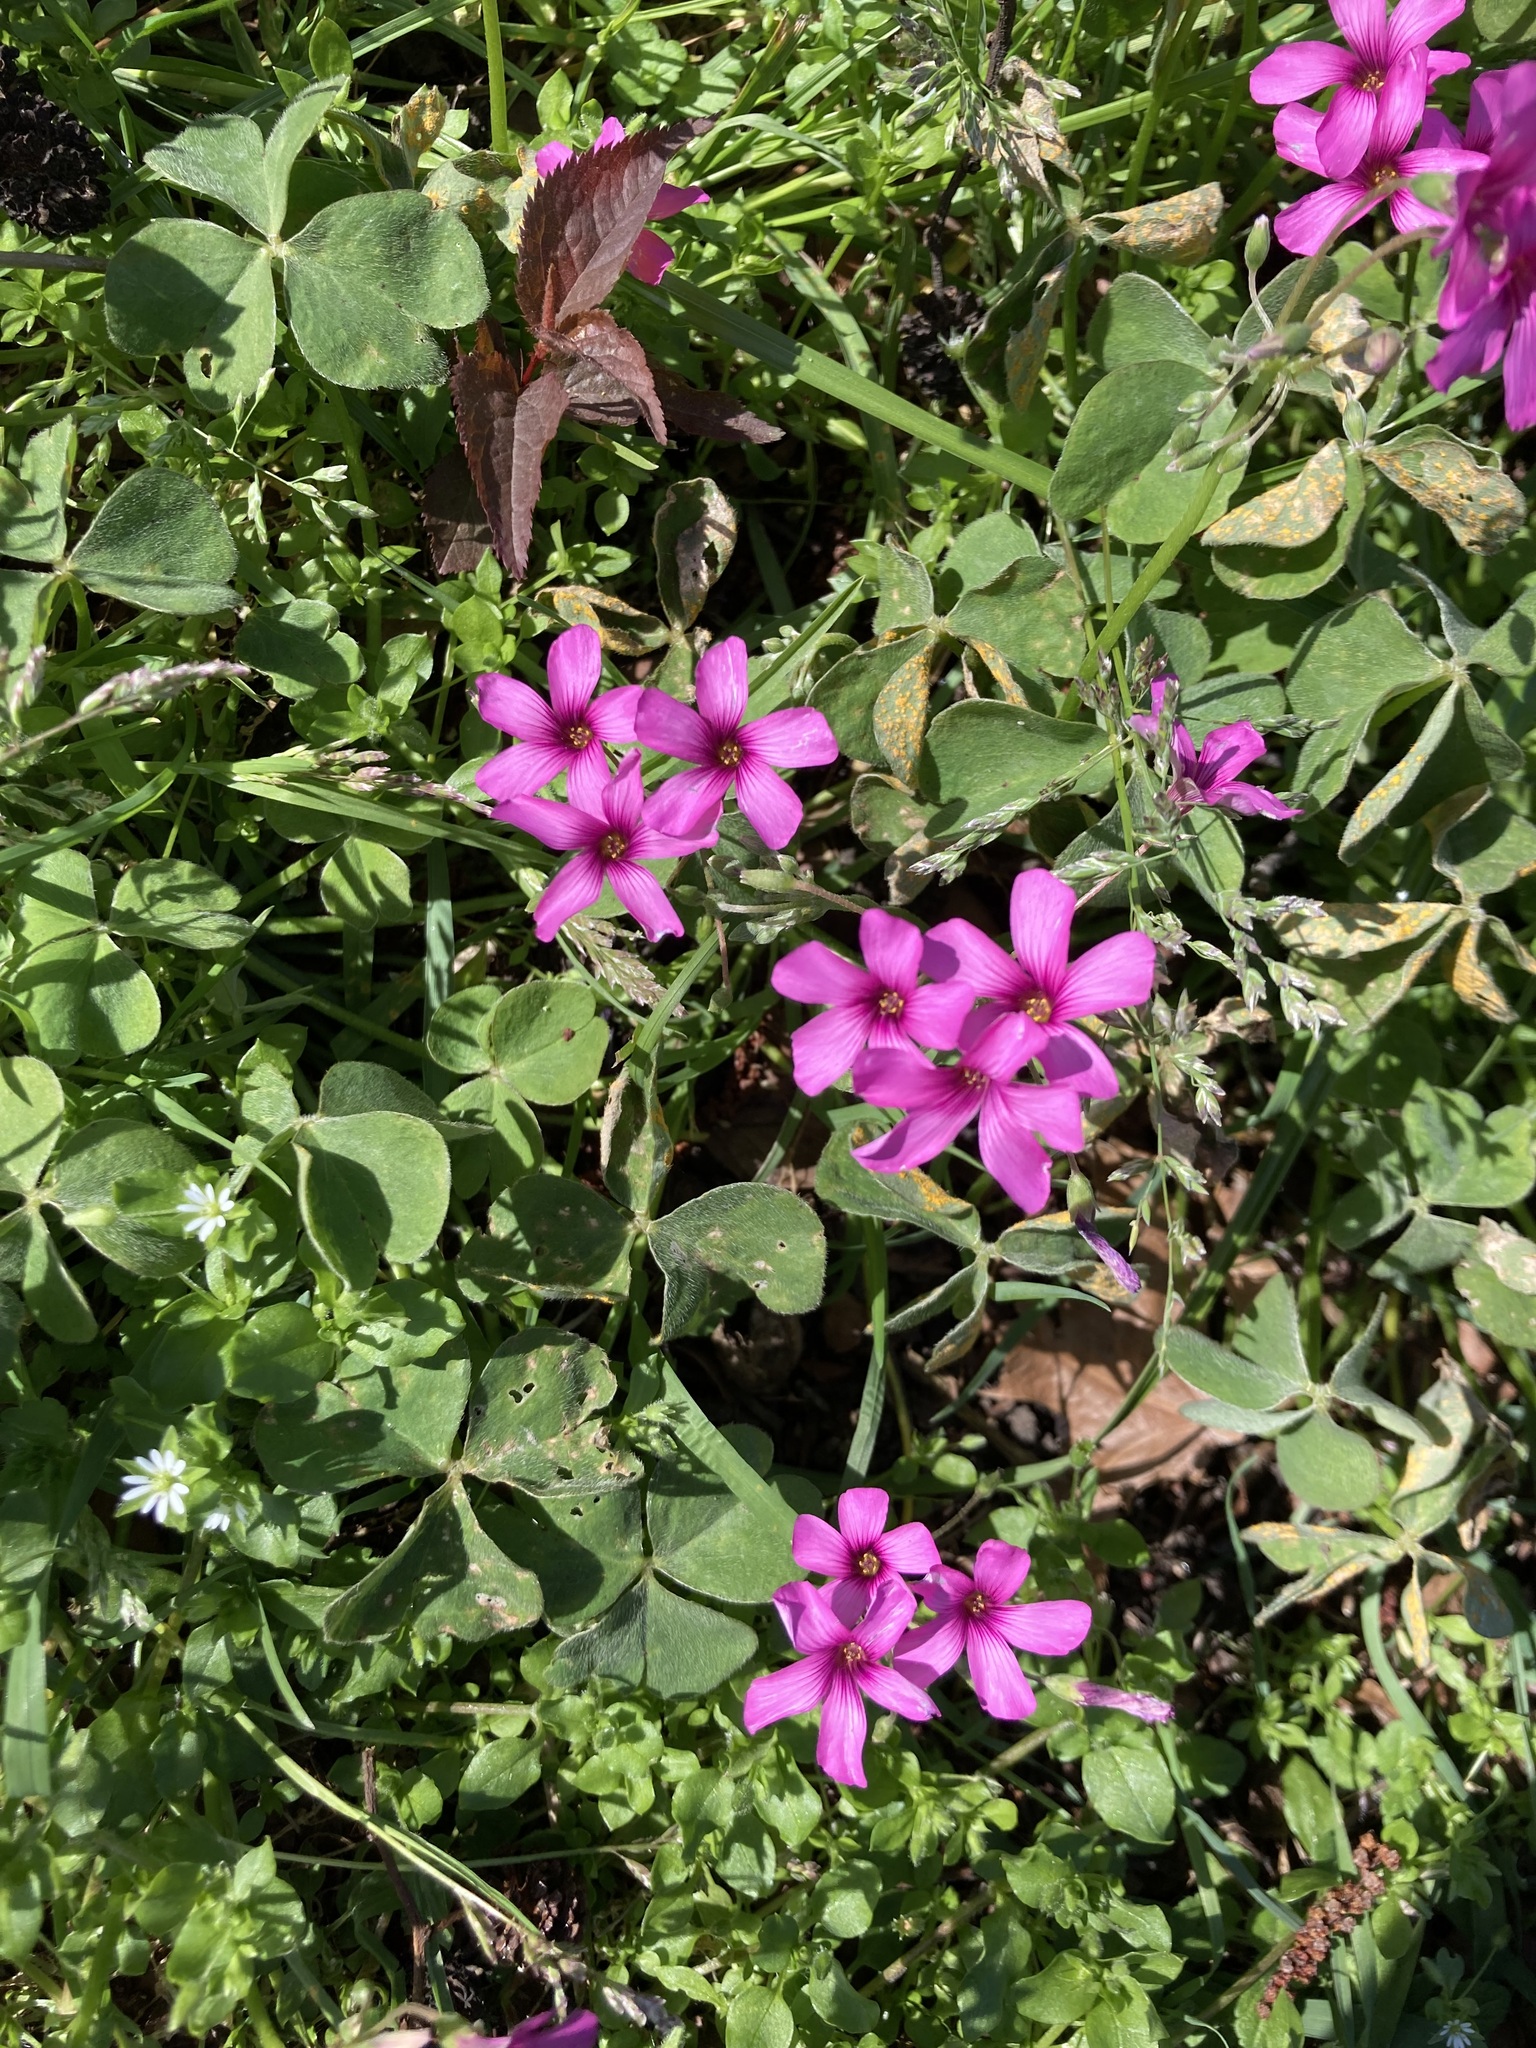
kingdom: Plantae
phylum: Tracheophyta
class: Magnoliopsida
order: Oxalidales
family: Oxalidaceae
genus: Oxalis
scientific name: Oxalis articulata
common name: Pink-sorrel
